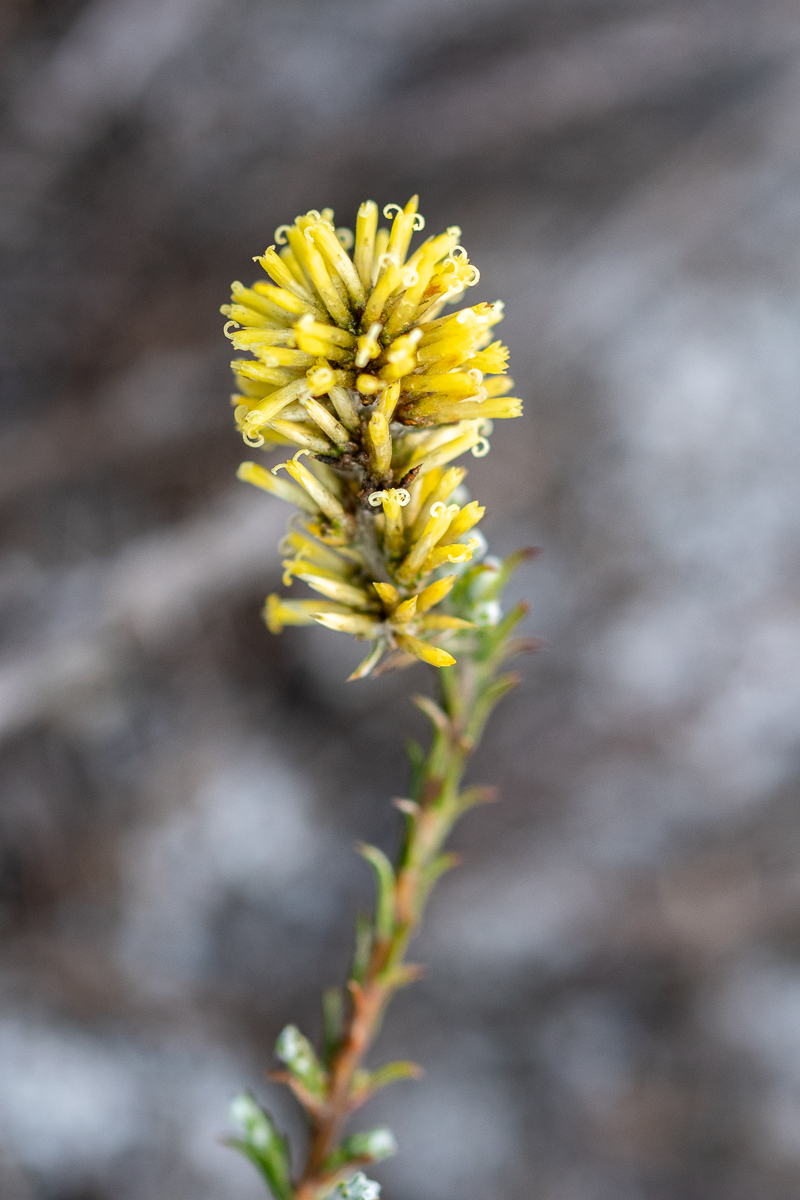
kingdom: Plantae
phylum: Tracheophyta
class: Magnoliopsida
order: Asterales
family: Asteraceae
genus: Seriphium
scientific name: Seriphium spirale
